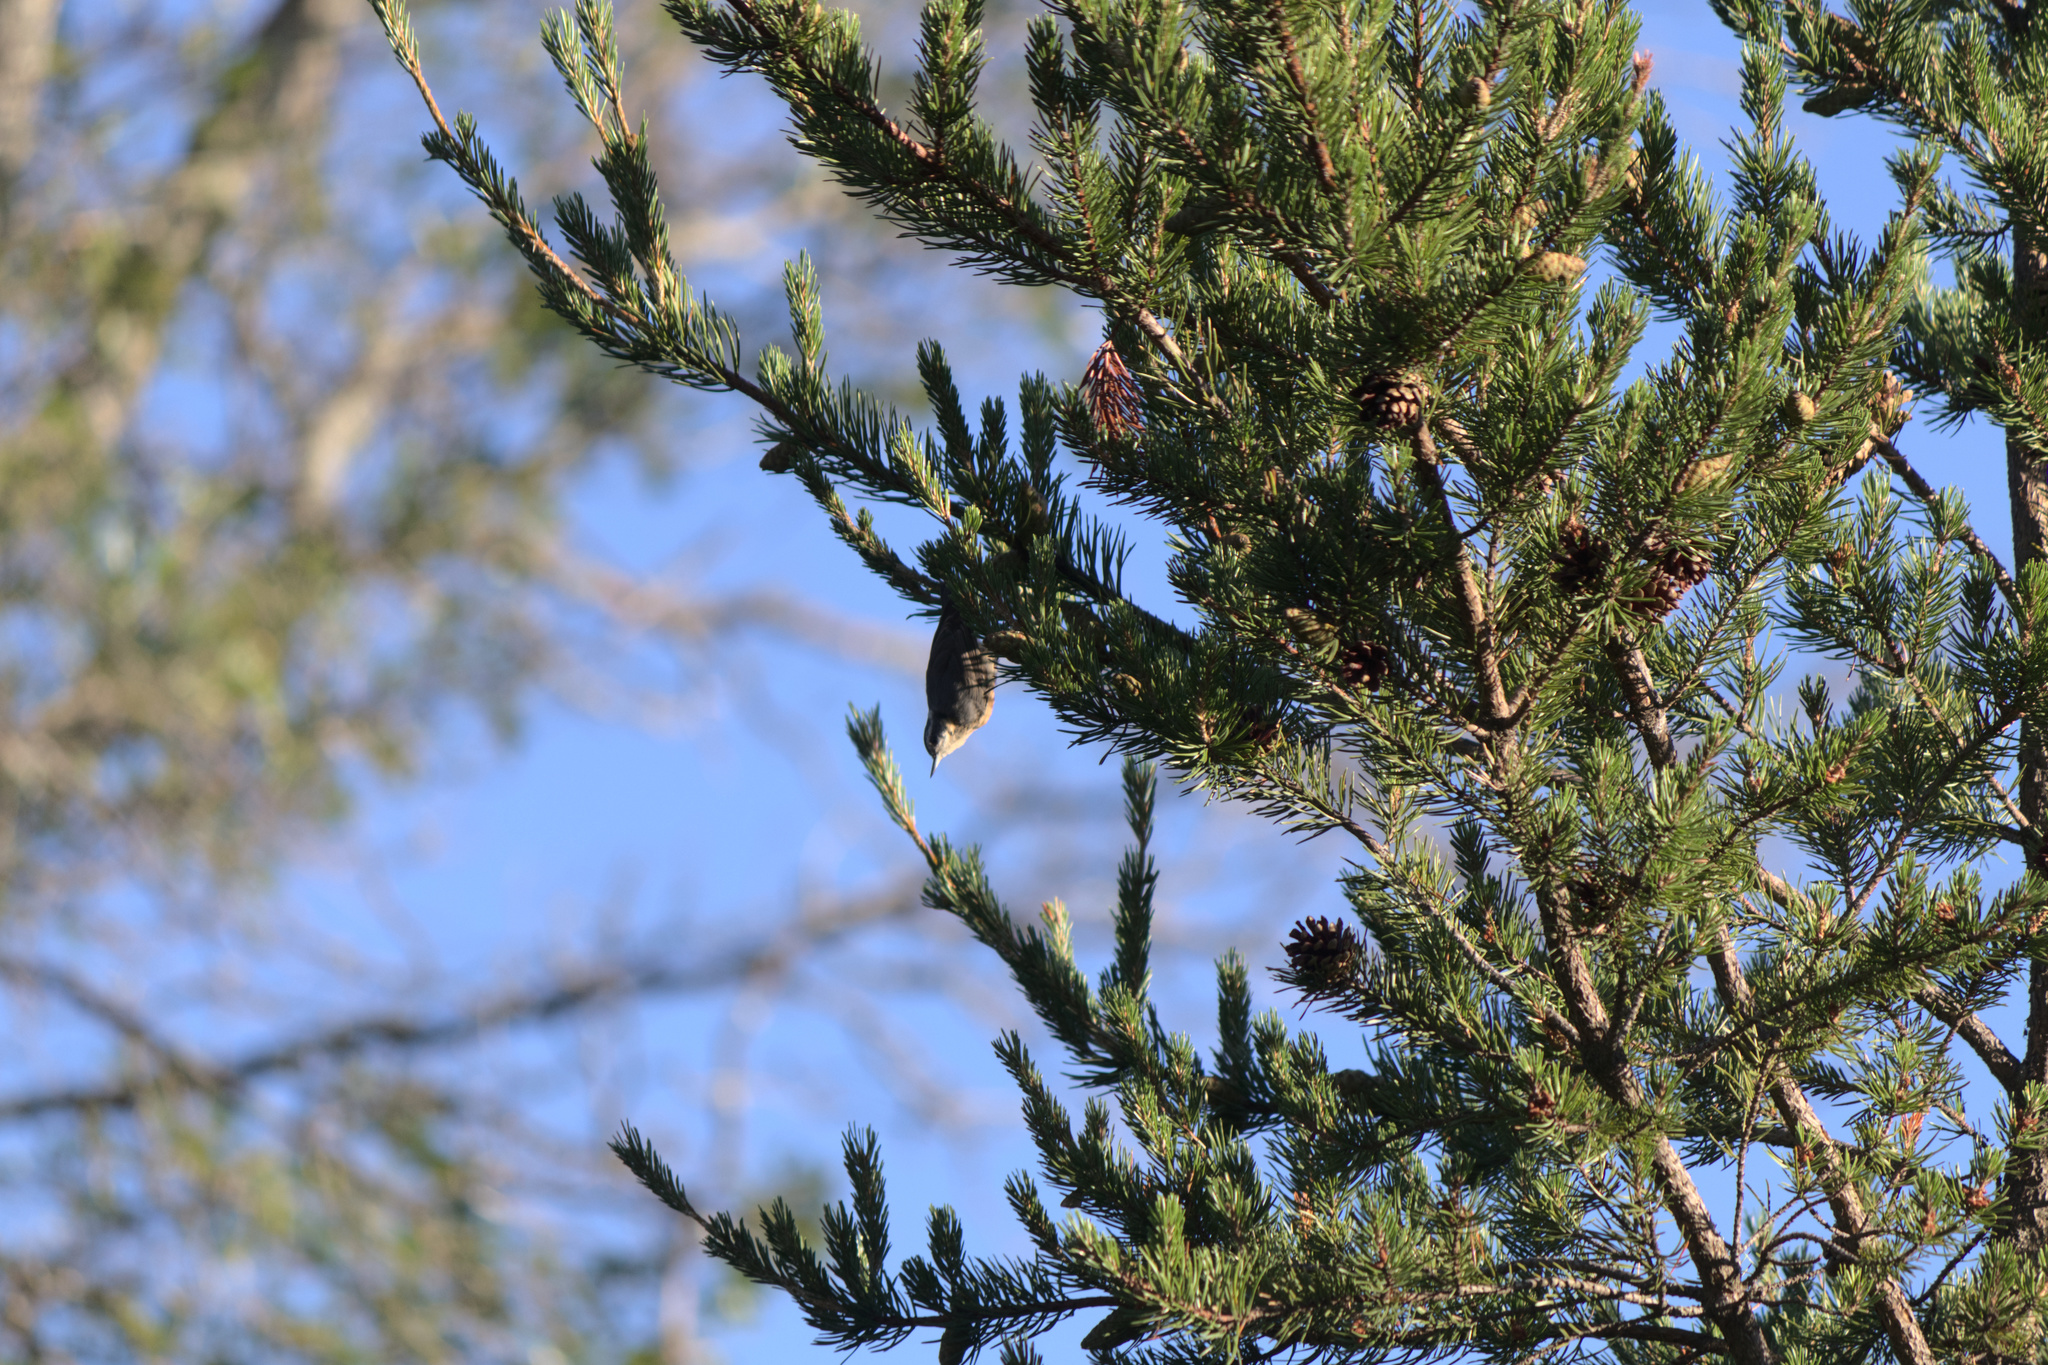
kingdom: Plantae
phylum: Tracheophyta
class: Pinopsida
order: Pinales
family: Pinaceae
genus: Pinus
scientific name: Pinus banksiana
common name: Jack pine
